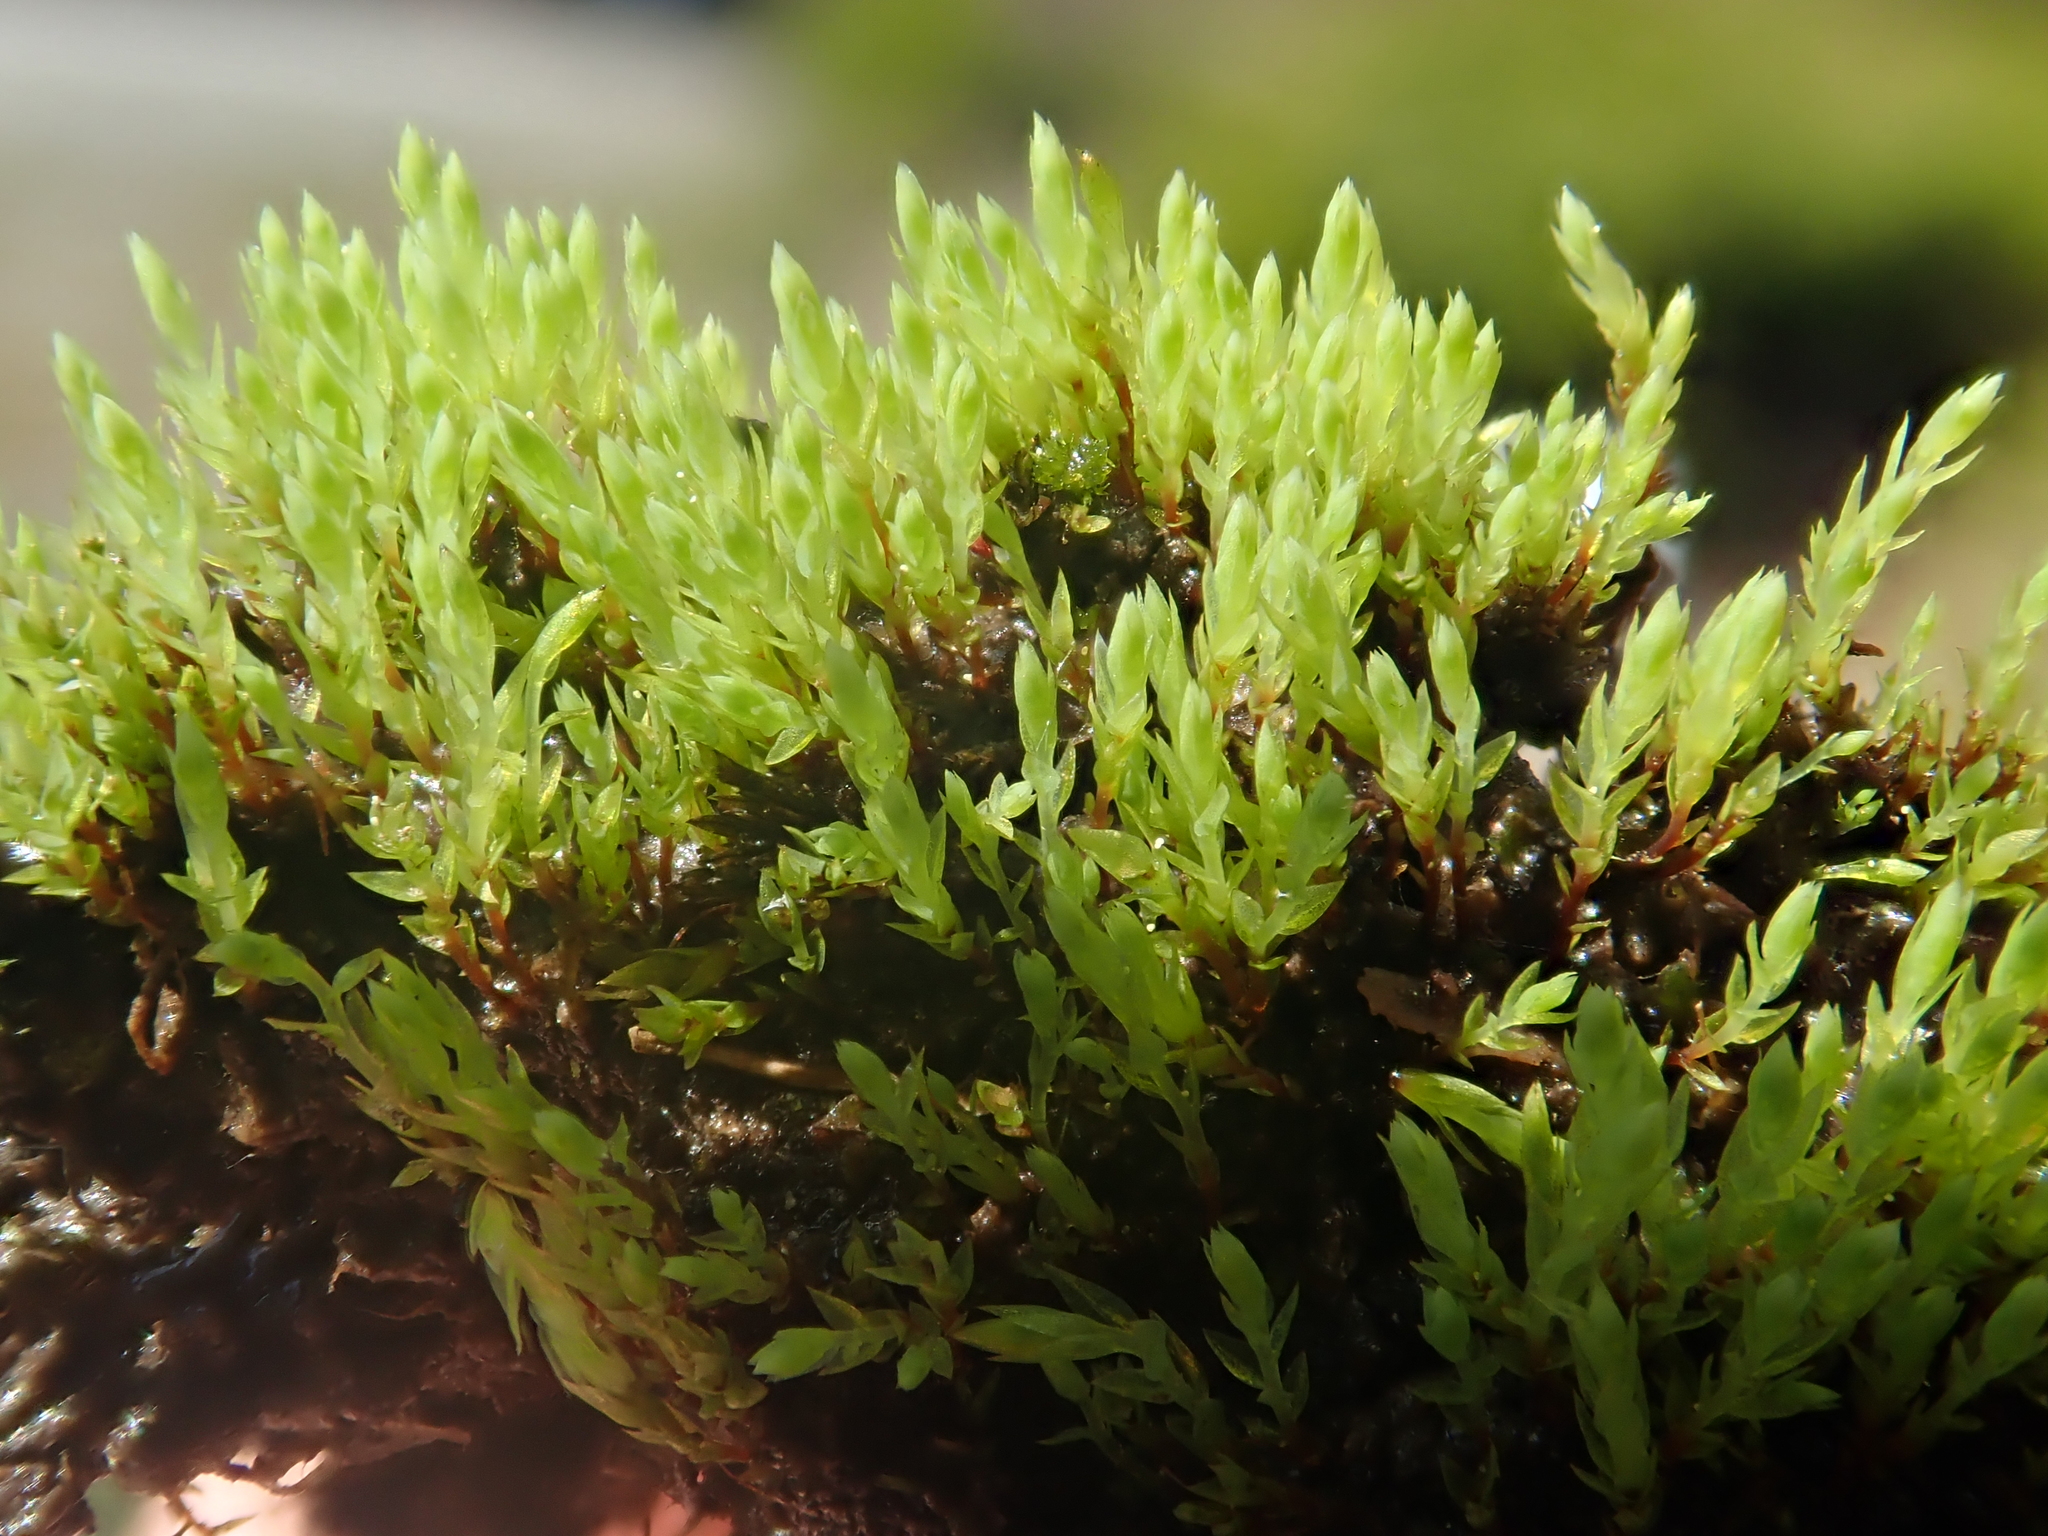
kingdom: Plantae
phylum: Bryophyta
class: Bryopsida
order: Bryales
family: Mniaceae
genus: Pohlia
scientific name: Pohlia wahlenbergii
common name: Wahlenberg's nodding moss
